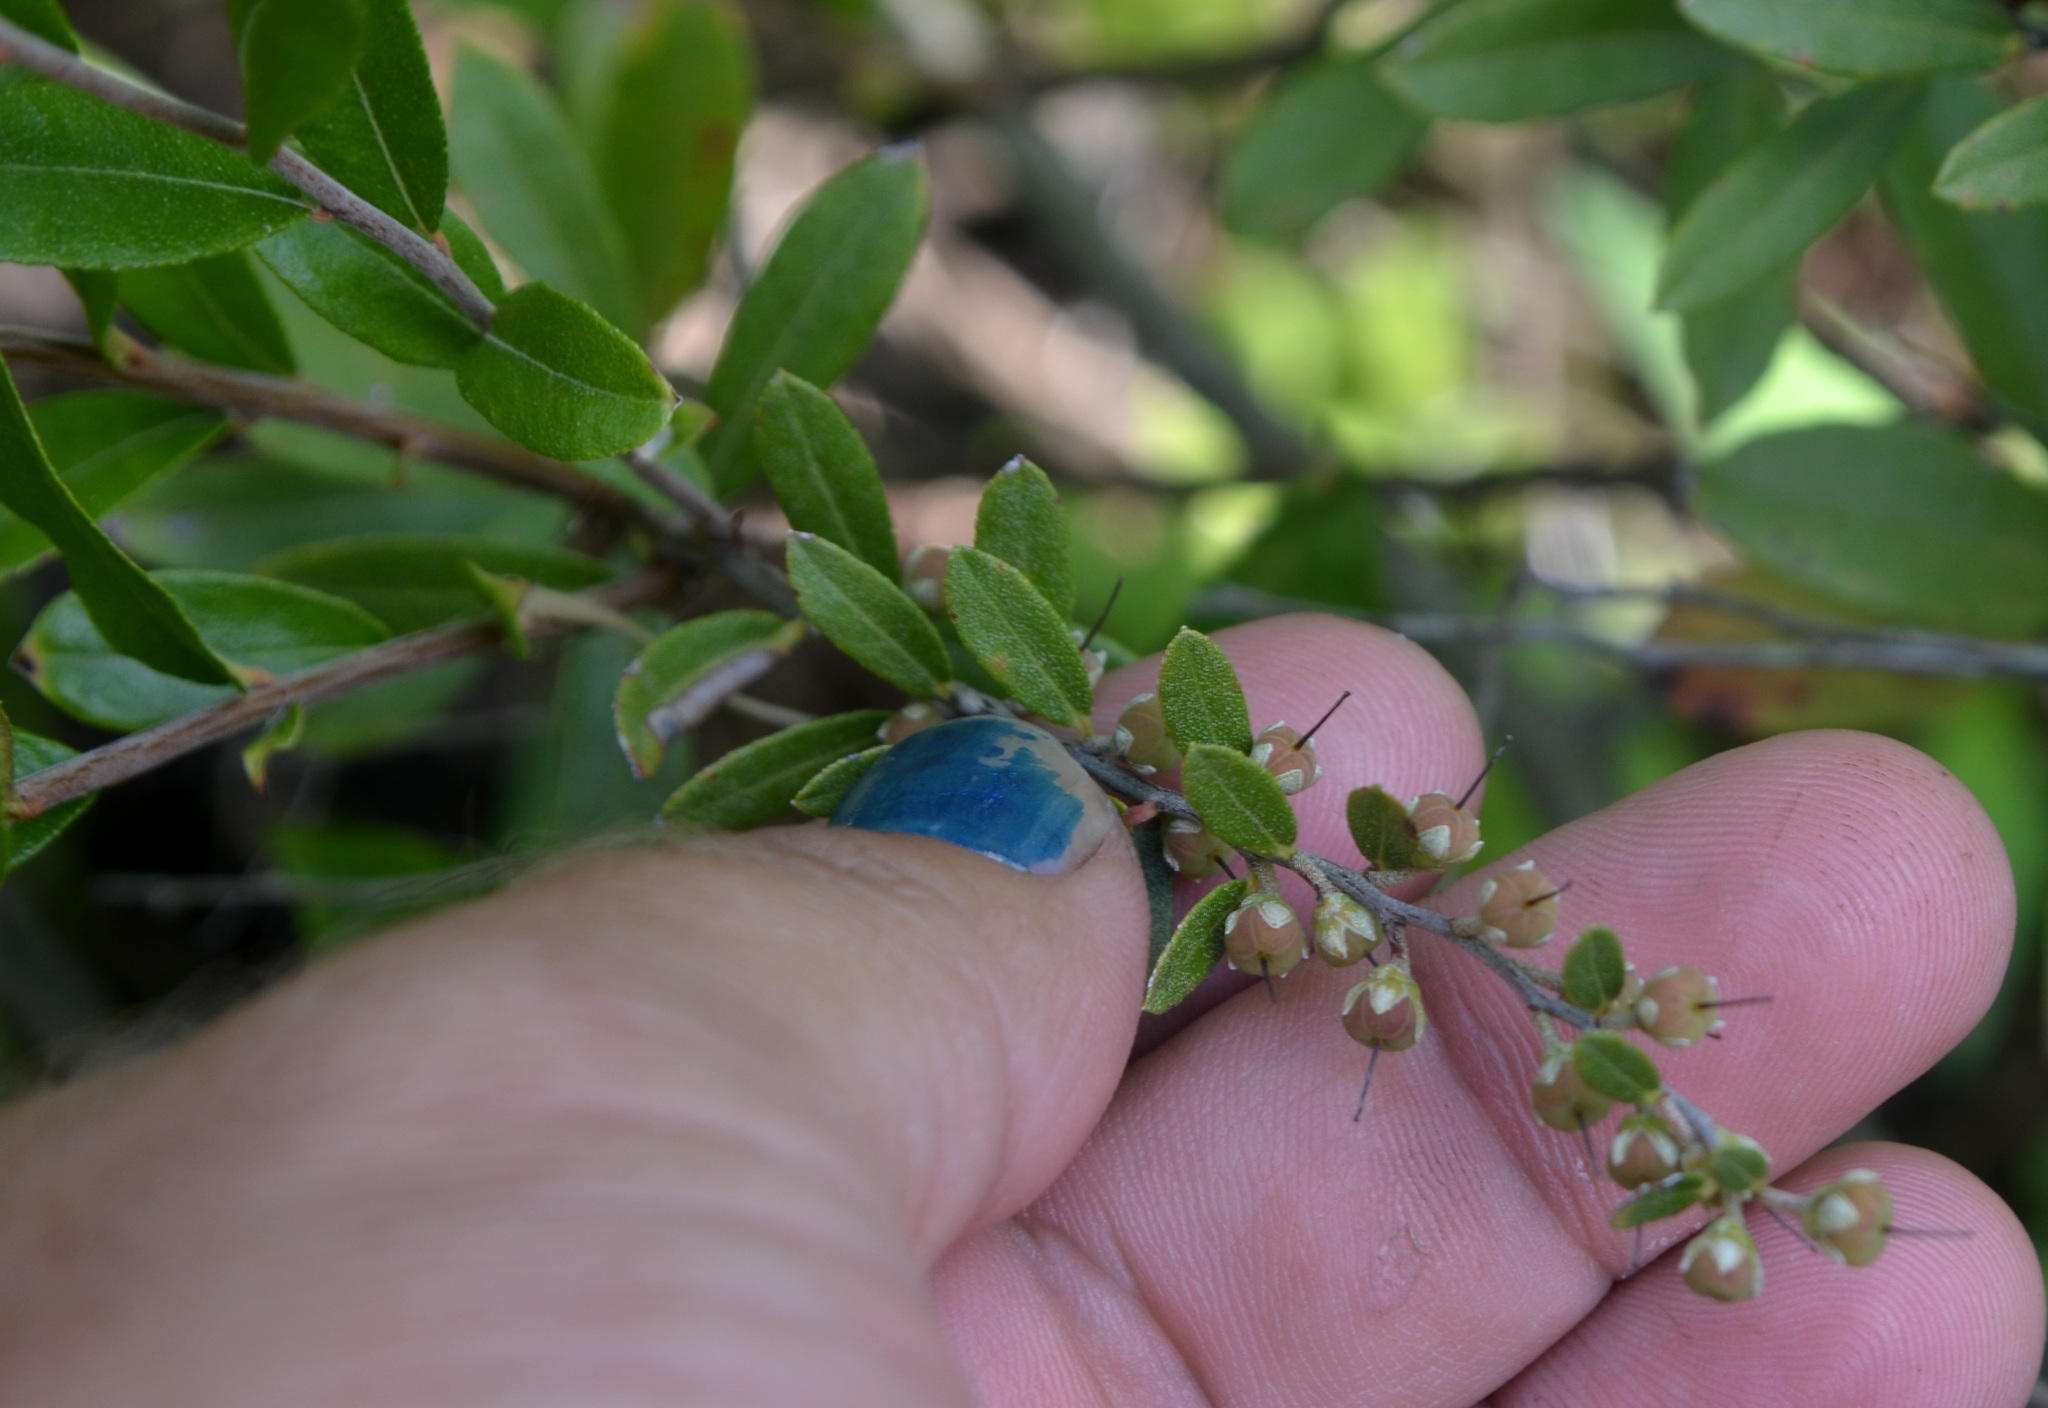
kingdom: Plantae
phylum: Tracheophyta
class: Magnoliopsida
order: Ericales
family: Ericaceae
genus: Chamaedaphne
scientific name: Chamaedaphne calyculata
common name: Leatherleaf
